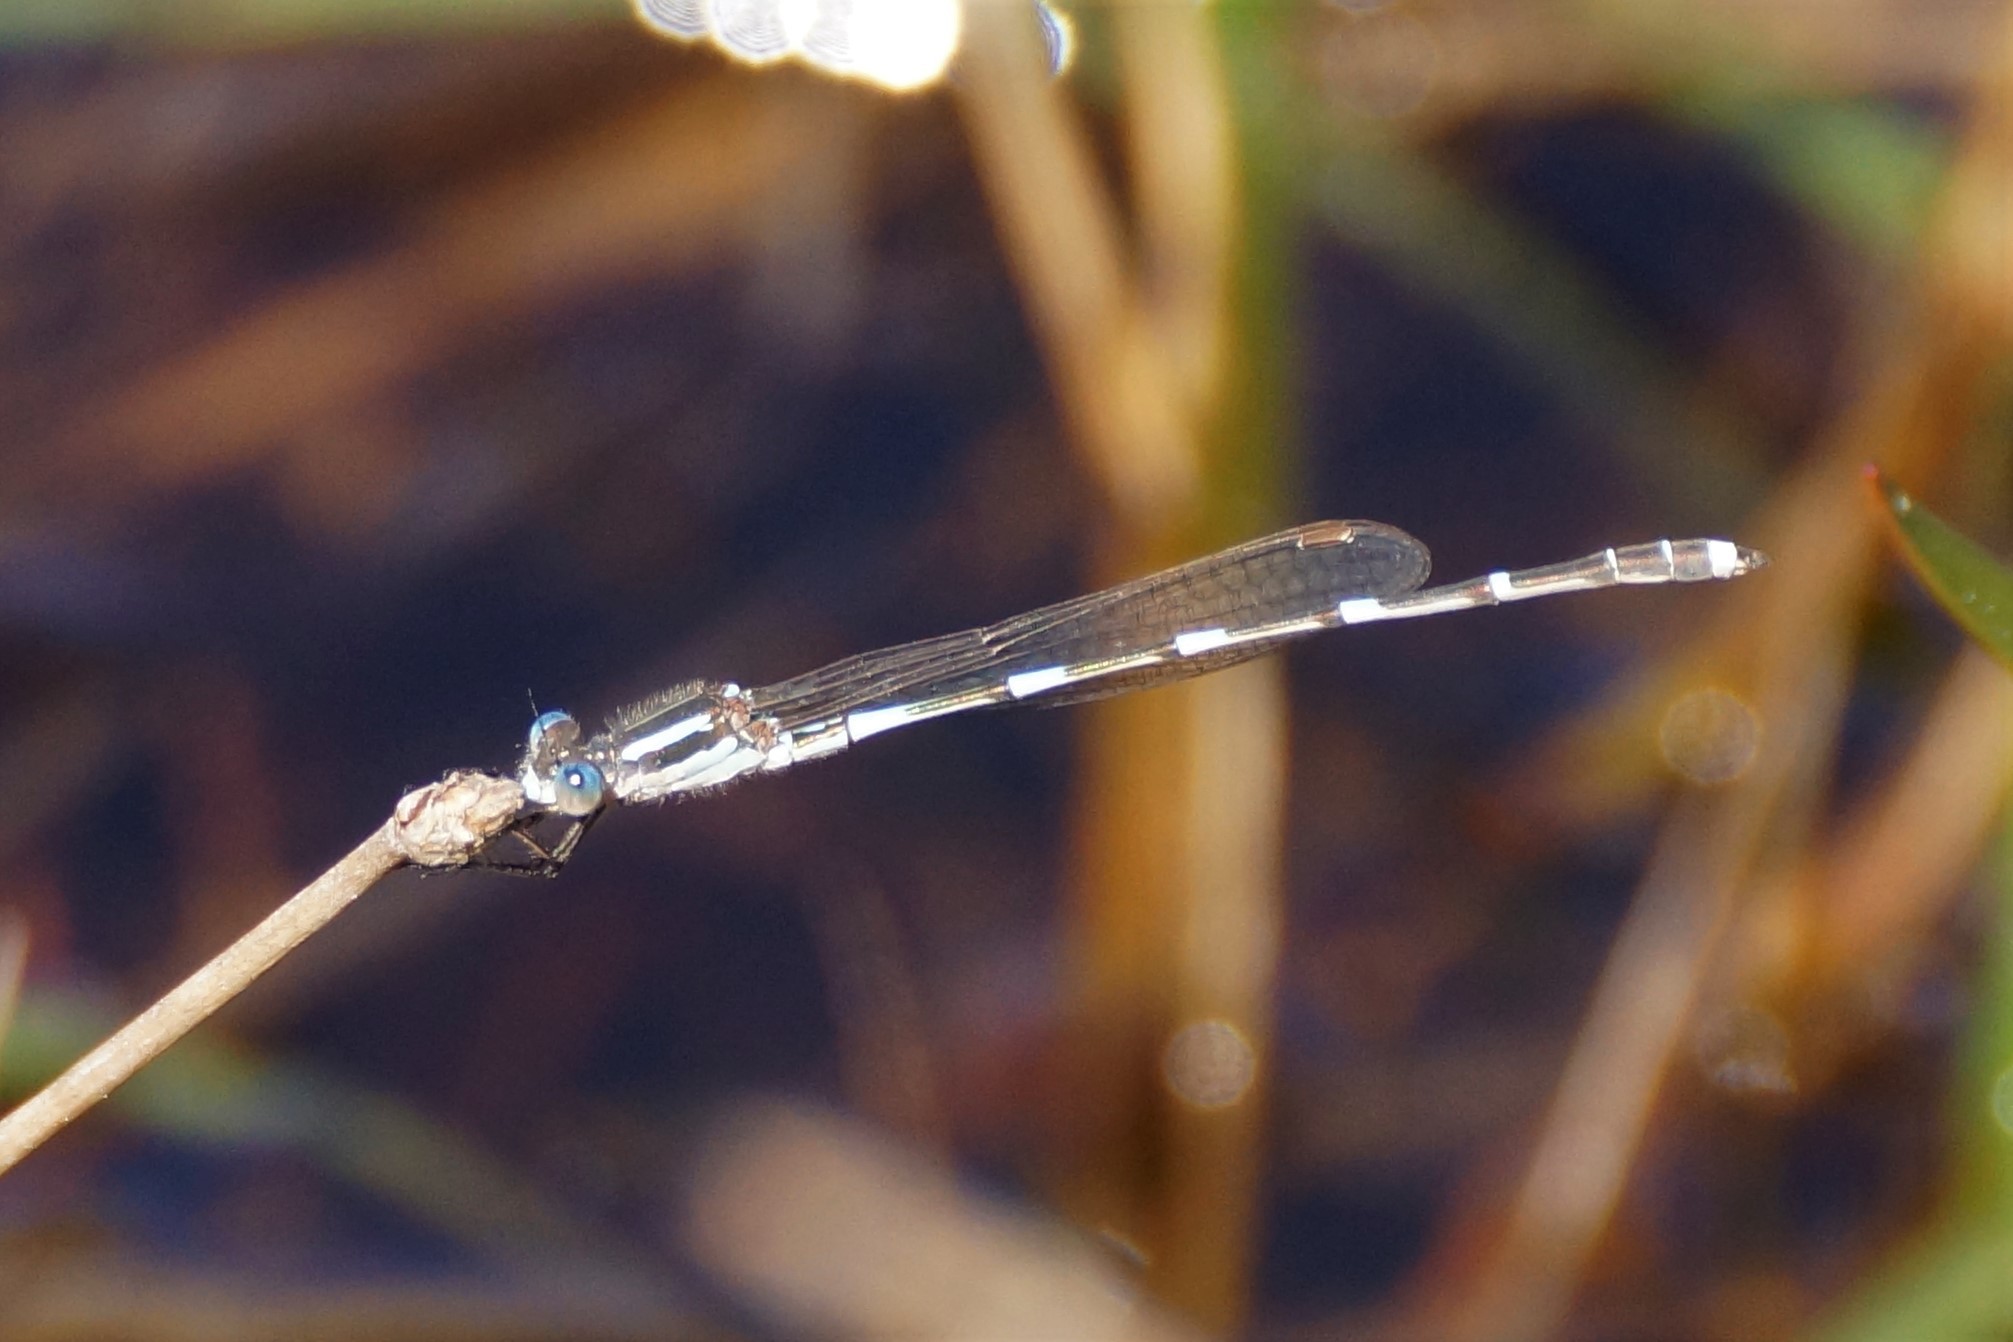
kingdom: Animalia
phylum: Arthropoda
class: Insecta
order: Odonata
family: Lestidae
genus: Austrolestes
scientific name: Austrolestes leda
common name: Wandering ringtail
